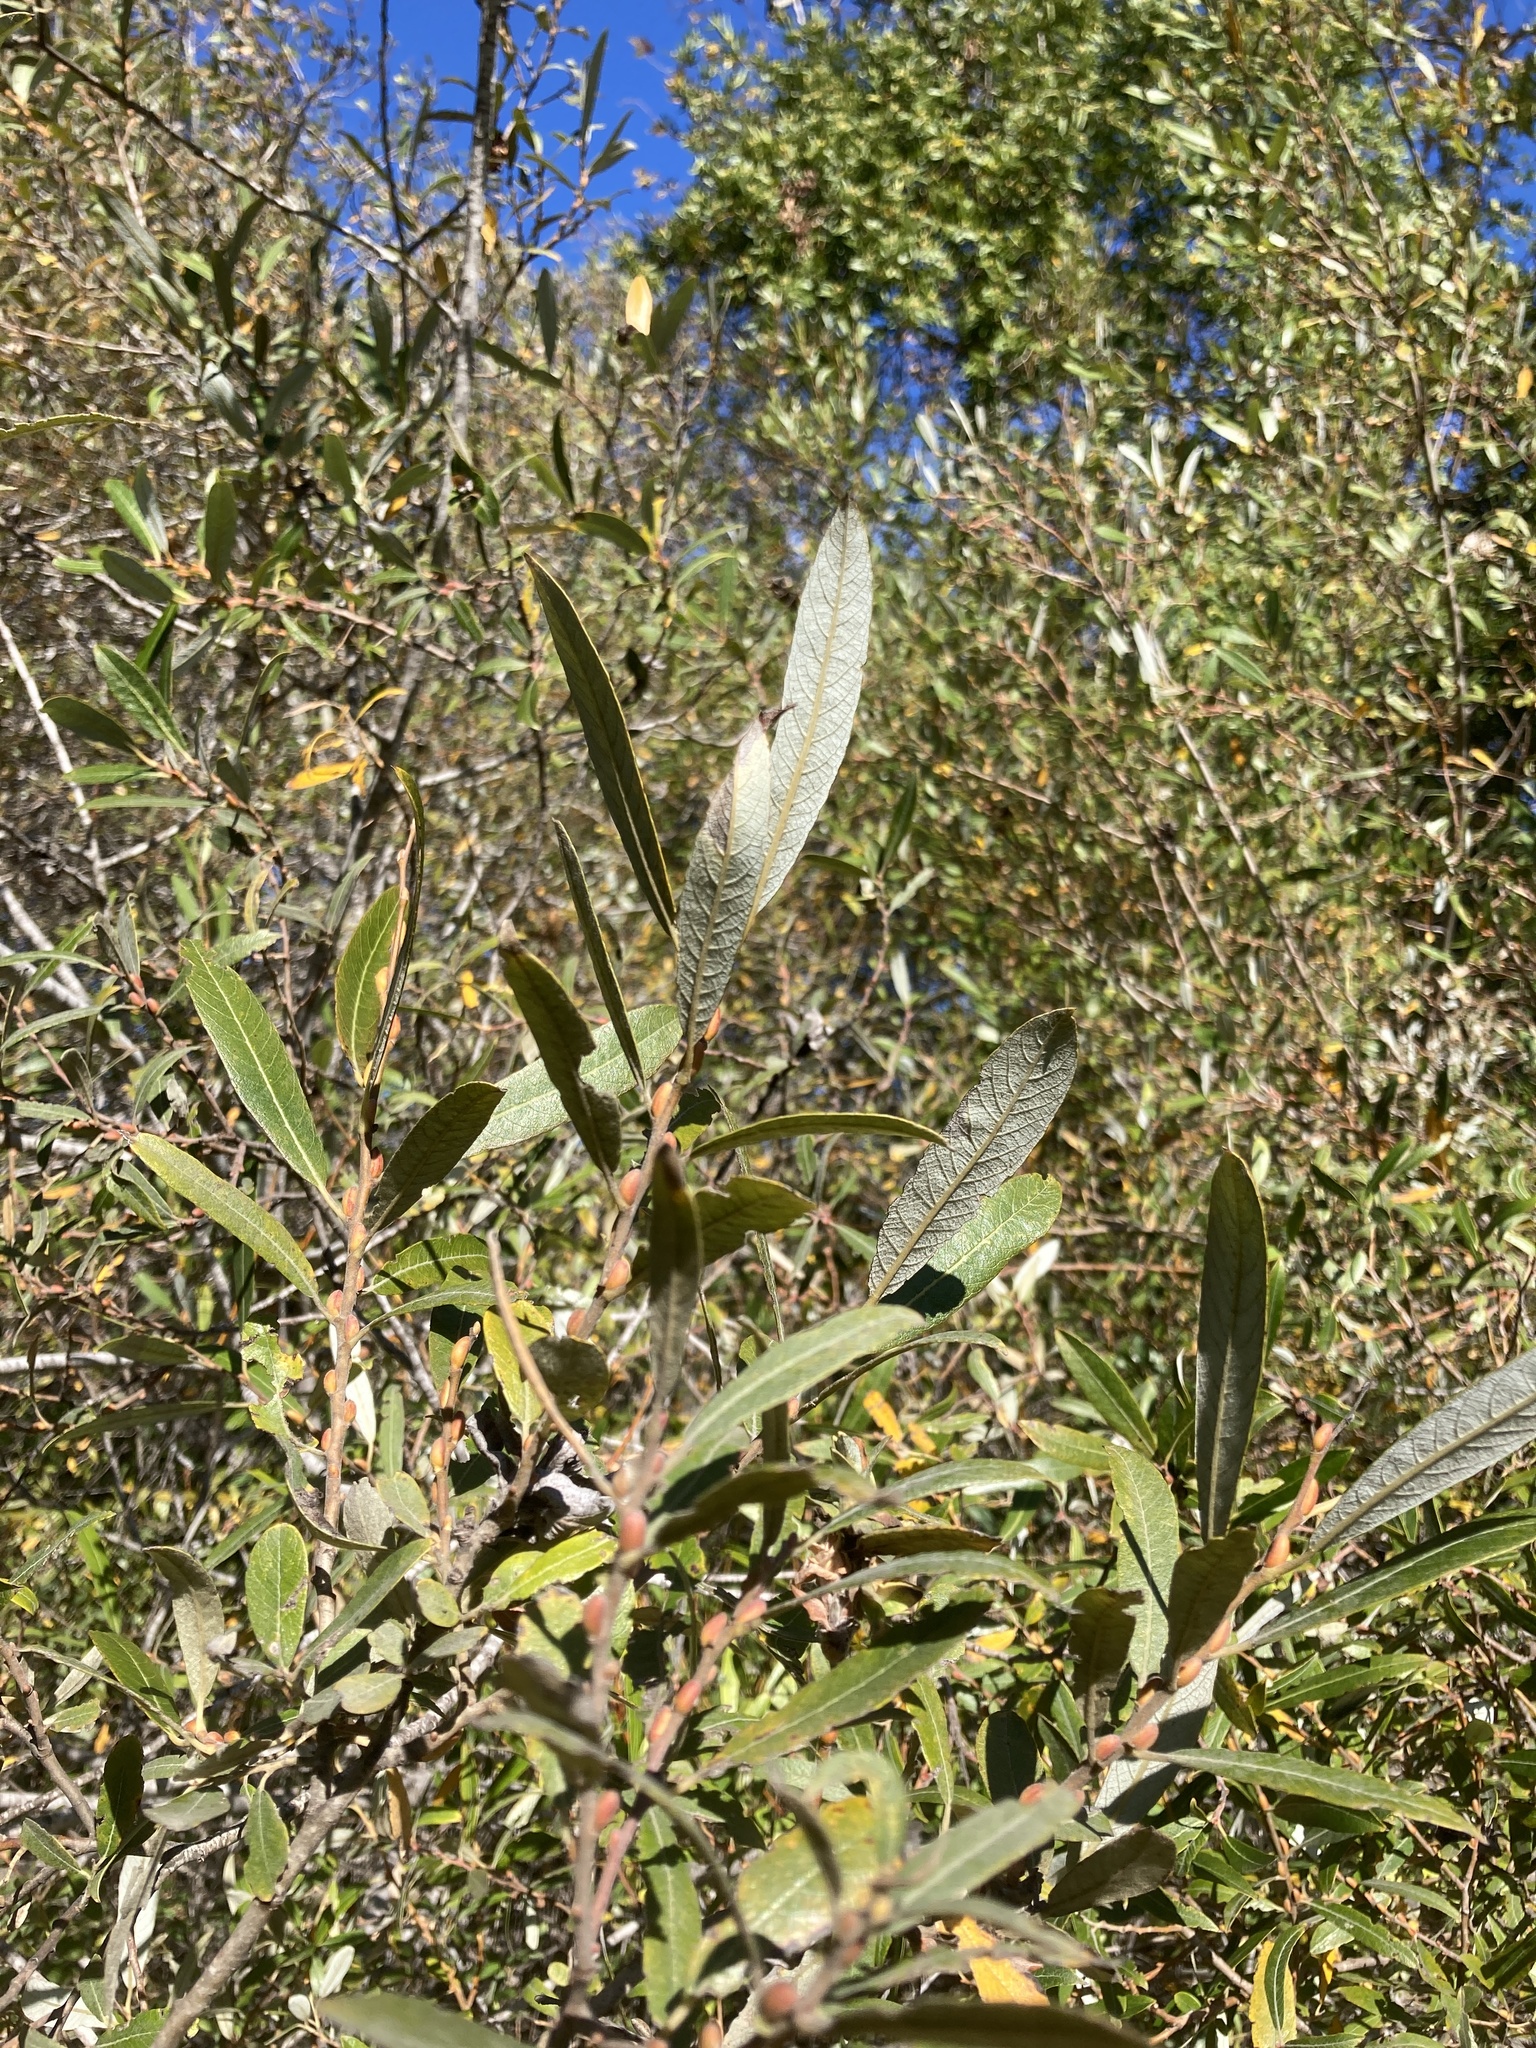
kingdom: Plantae
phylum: Tracheophyta
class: Magnoliopsida
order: Malpighiales
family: Salicaceae
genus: Salix
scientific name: Salix lasiolepis
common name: Arroyo willow
